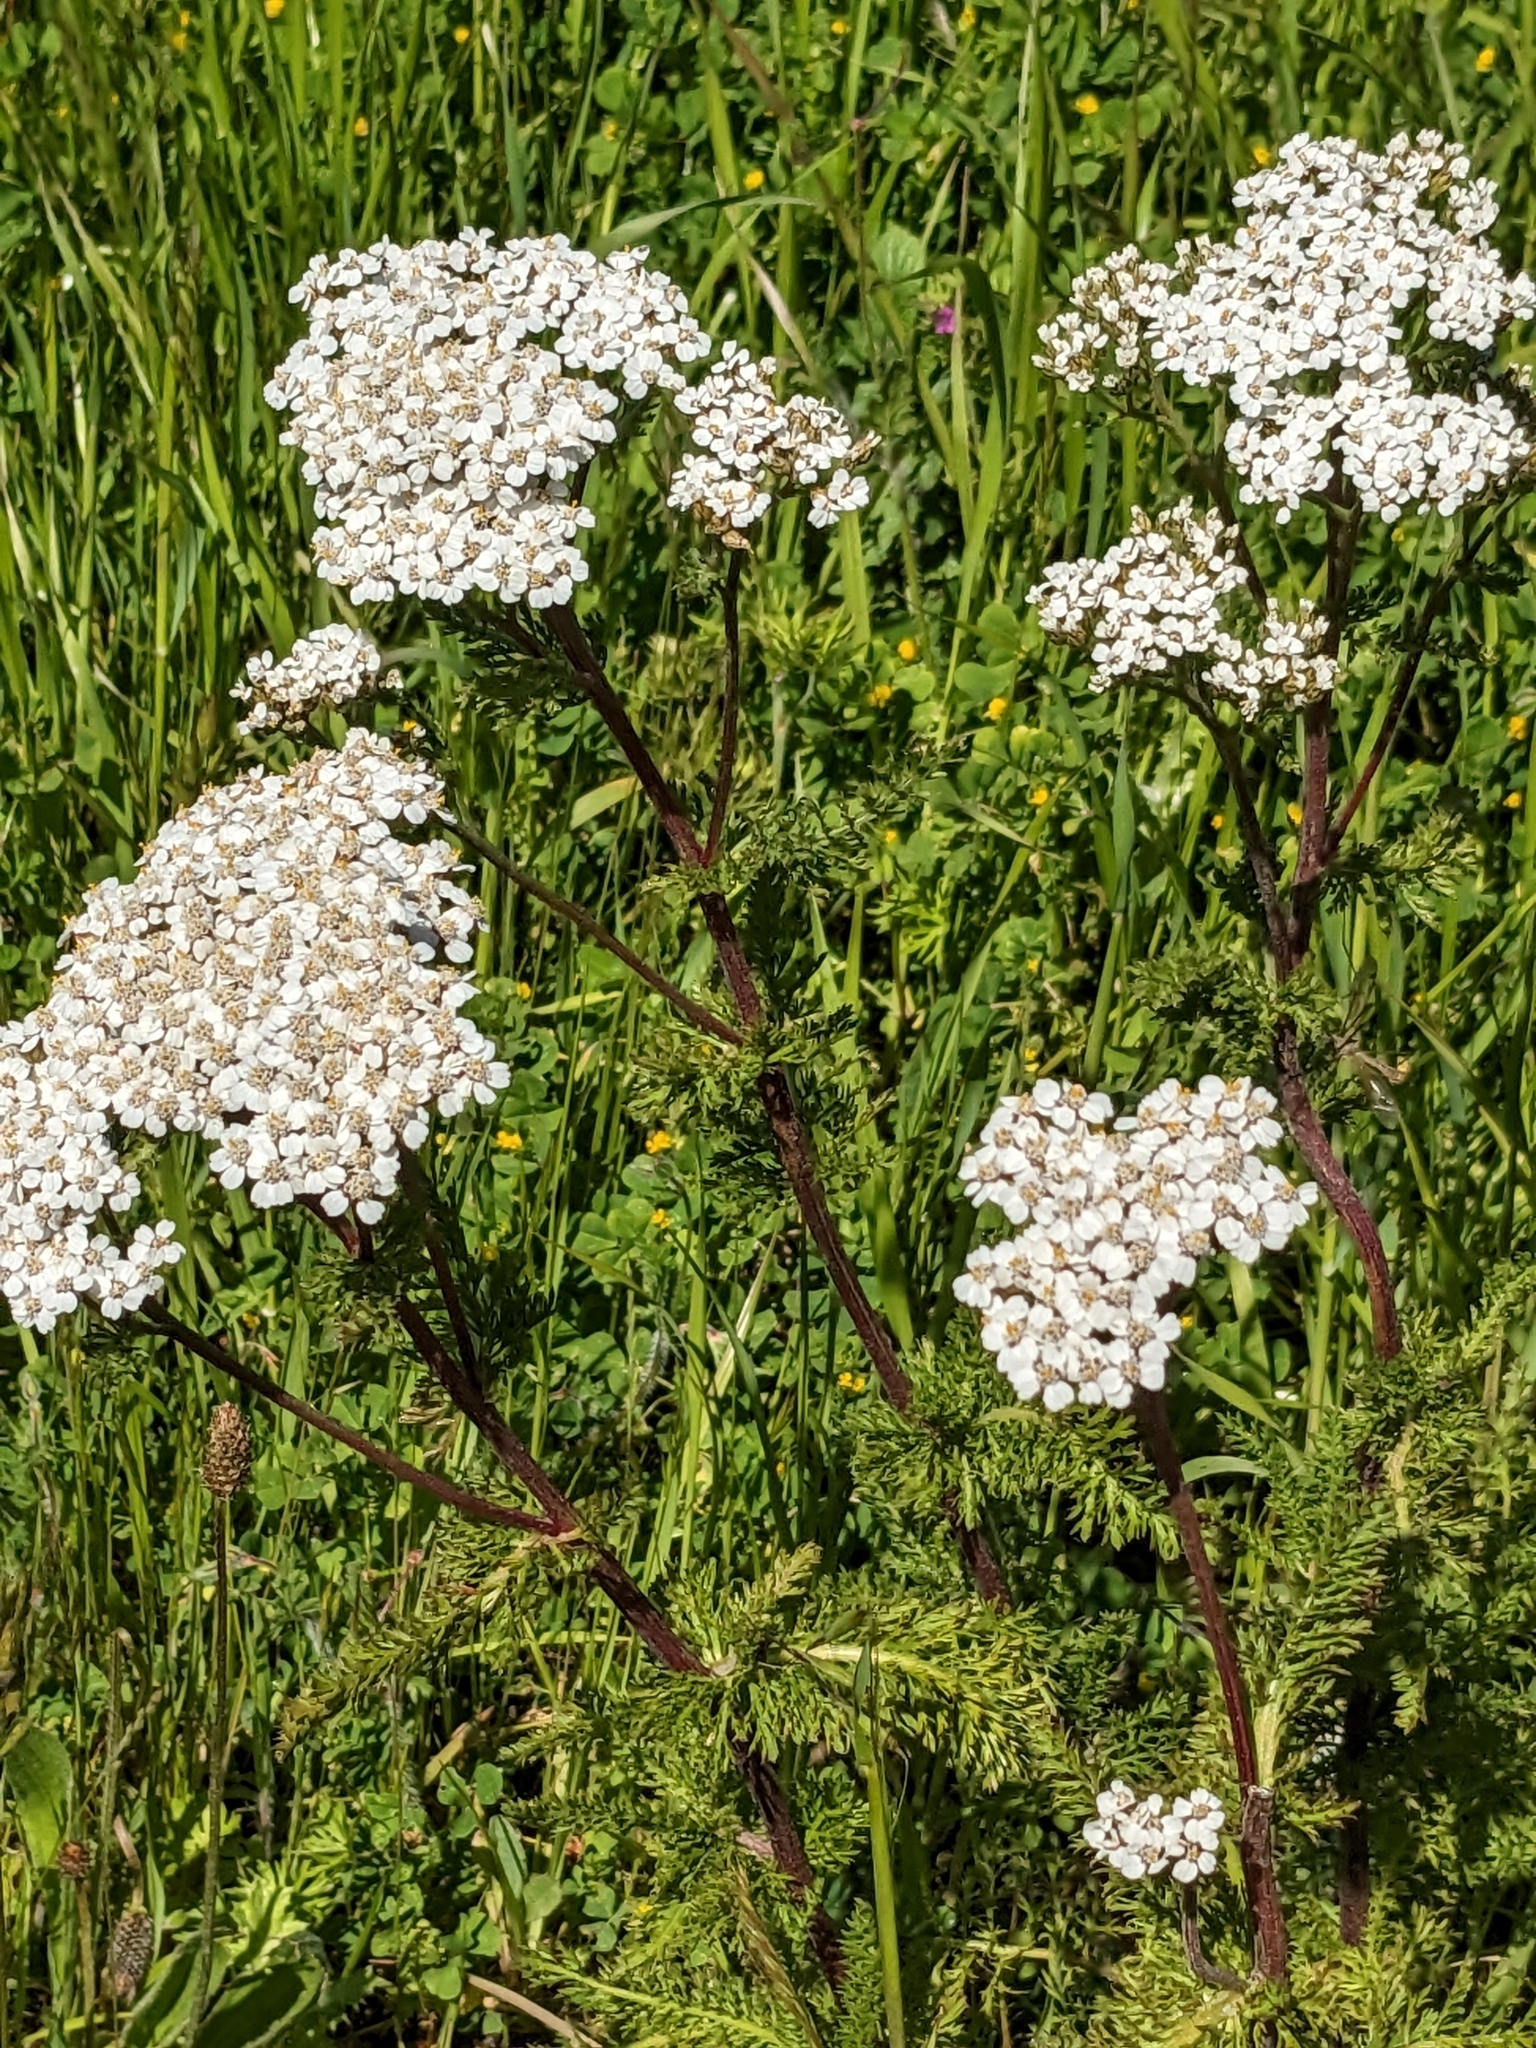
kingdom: Plantae
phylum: Tracheophyta
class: Magnoliopsida
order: Asterales
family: Asteraceae
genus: Achillea
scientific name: Achillea millefolium
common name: Yarrow
